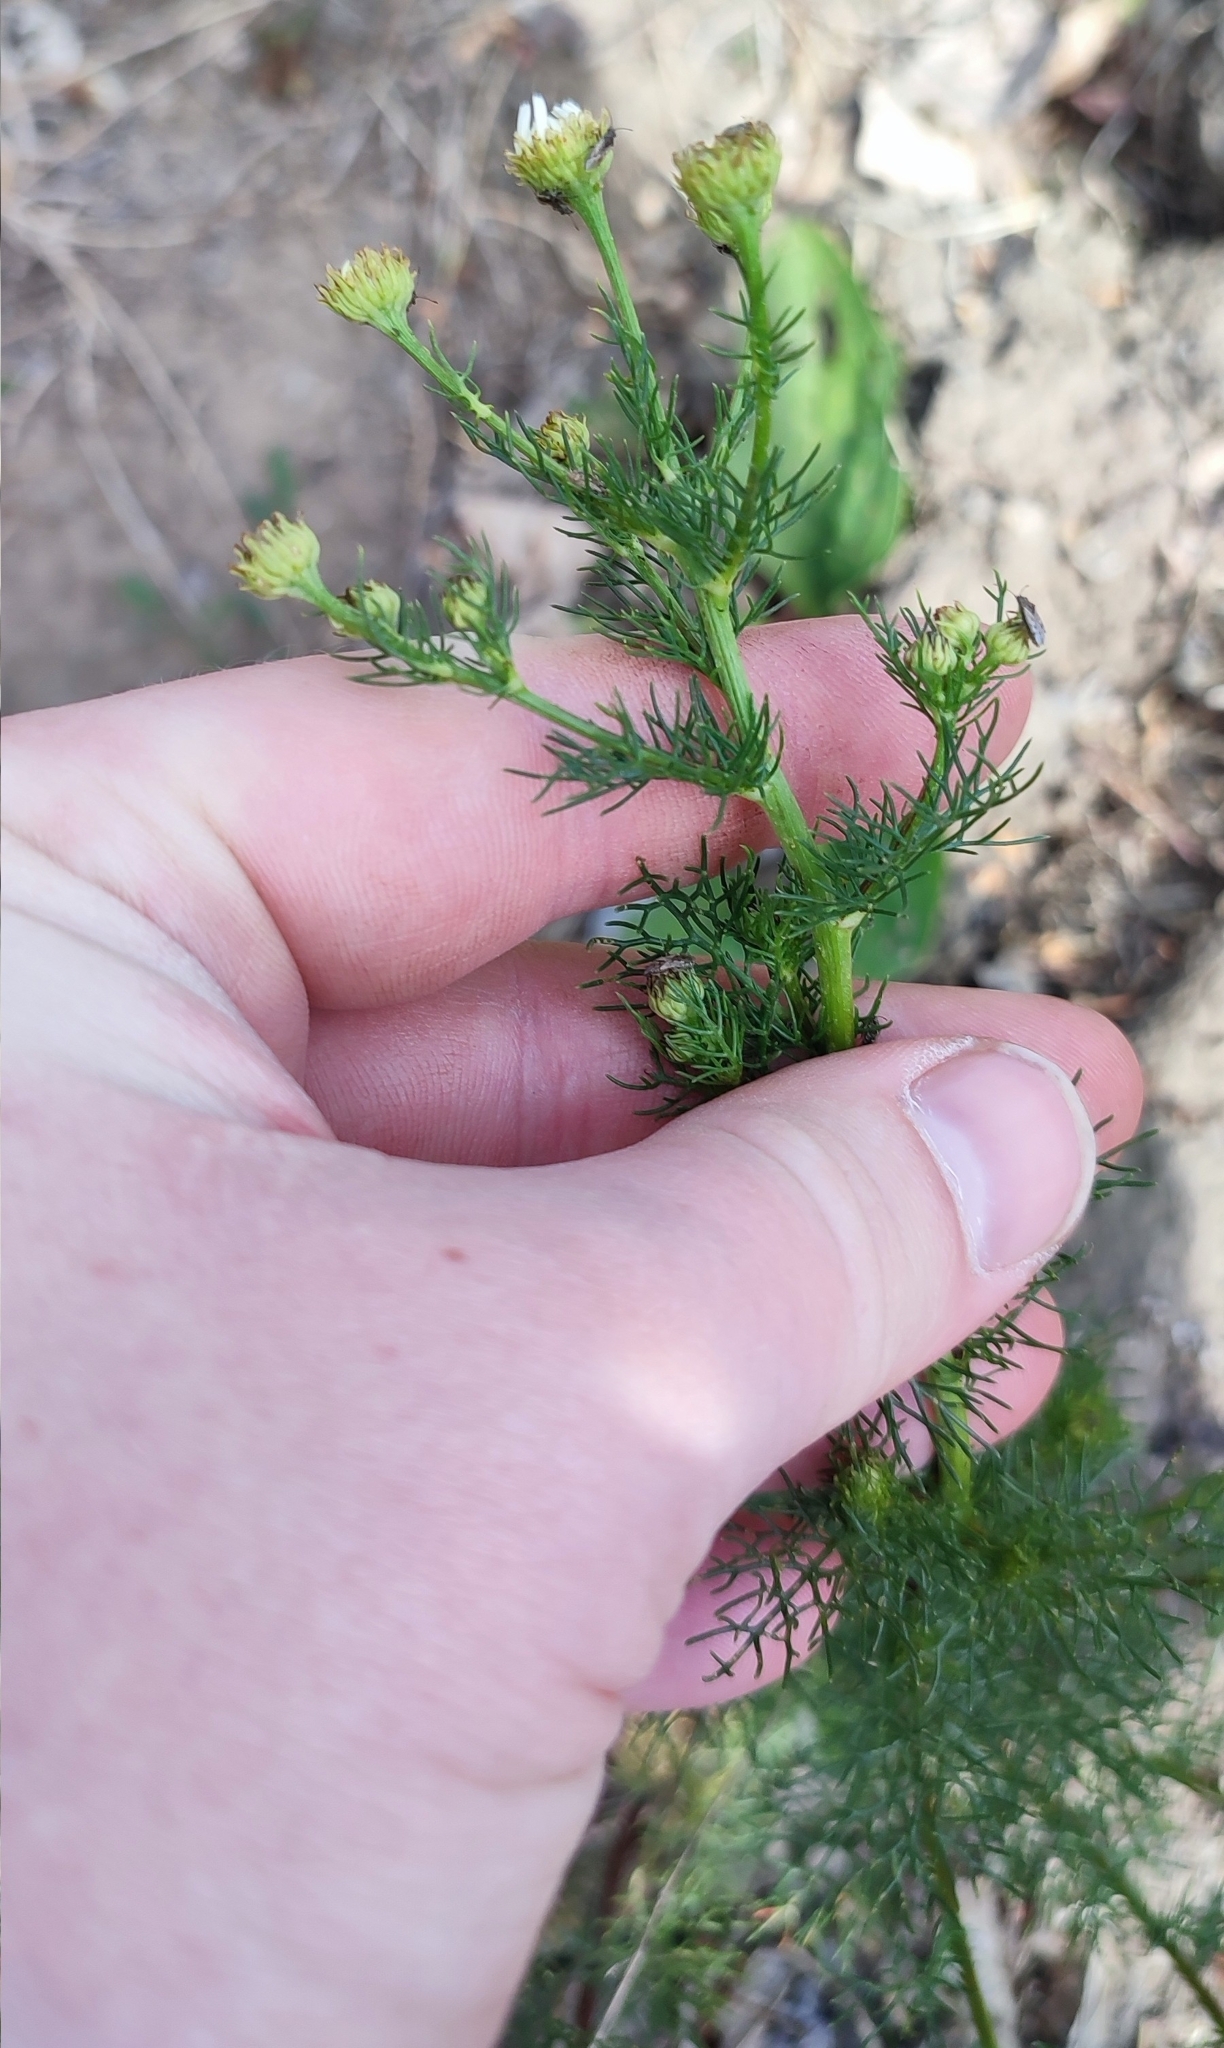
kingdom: Plantae
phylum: Tracheophyta
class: Magnoliopsida
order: Asterales
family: Asteraceae
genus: Tripleurospermum
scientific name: Tripleurospermum inodorum
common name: Scentless mayweed
